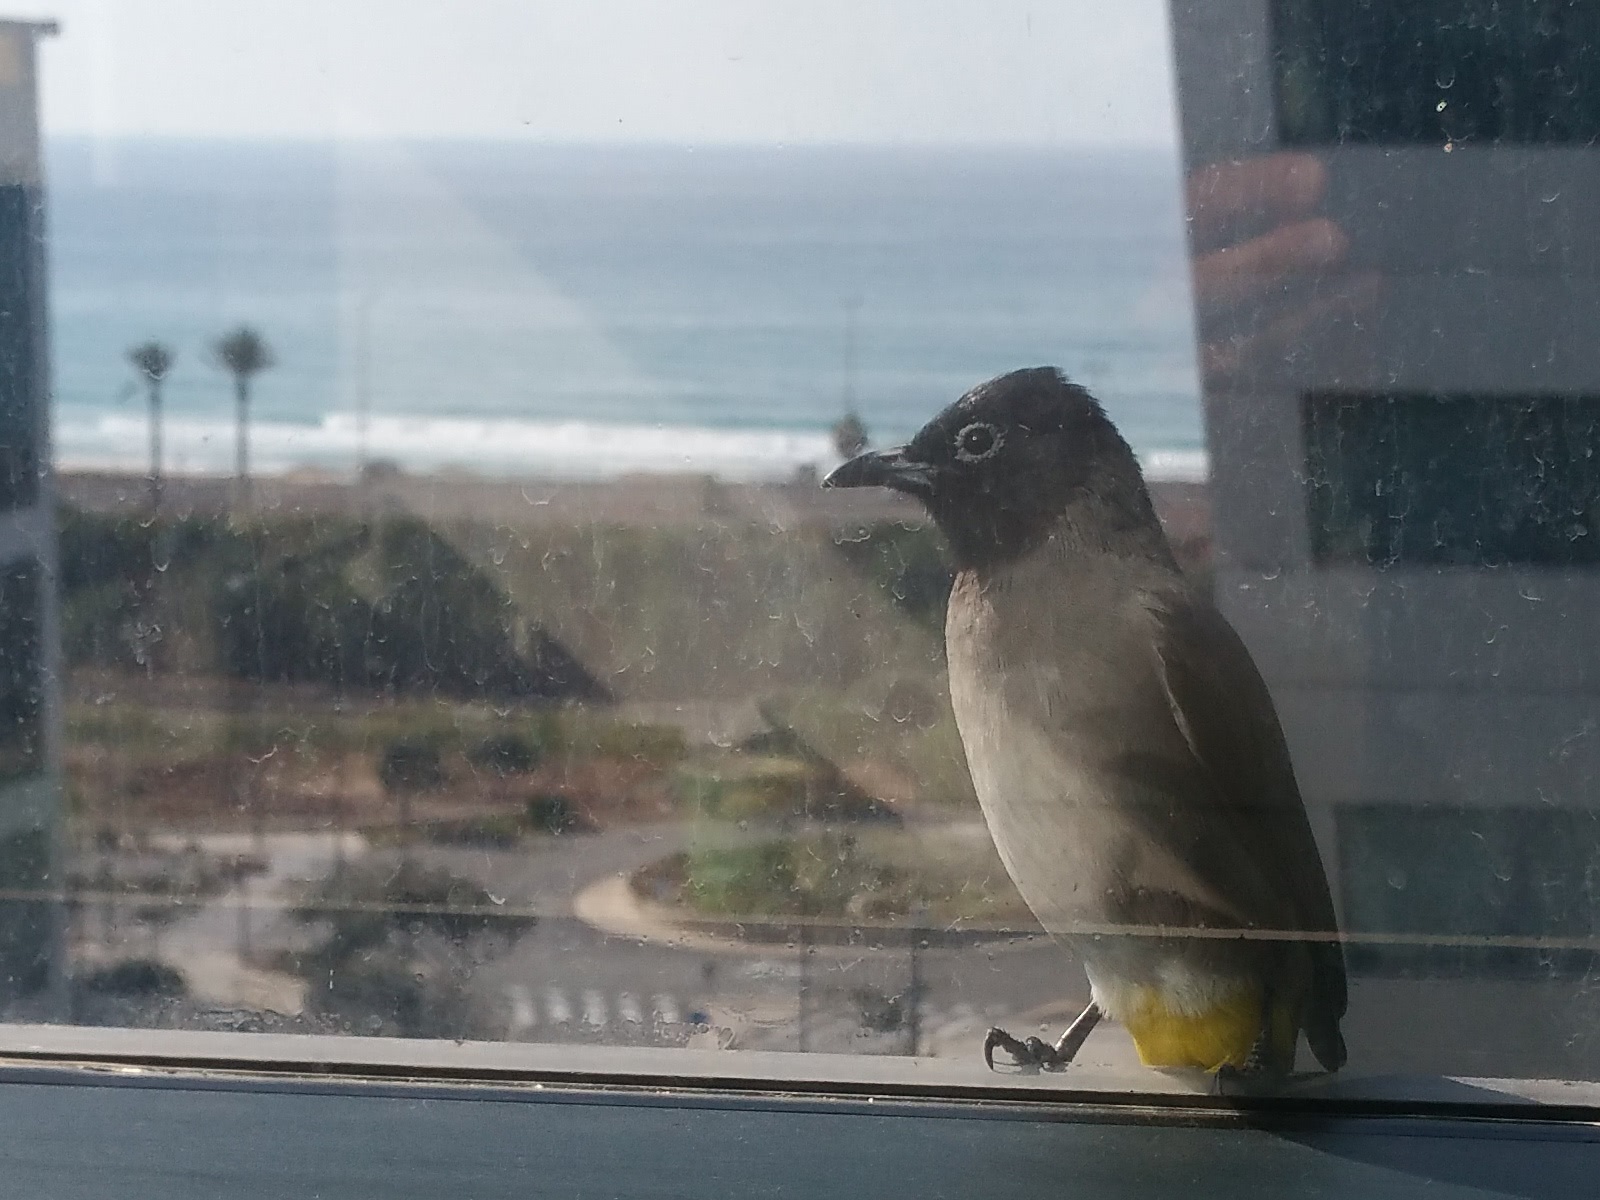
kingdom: Animalia
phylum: Chordata
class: Aves
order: Passeriformes
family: Pycnonotidae
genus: Pycnonotus
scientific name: Pycnonotus xanthopygos
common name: White-spectacled bulbul
